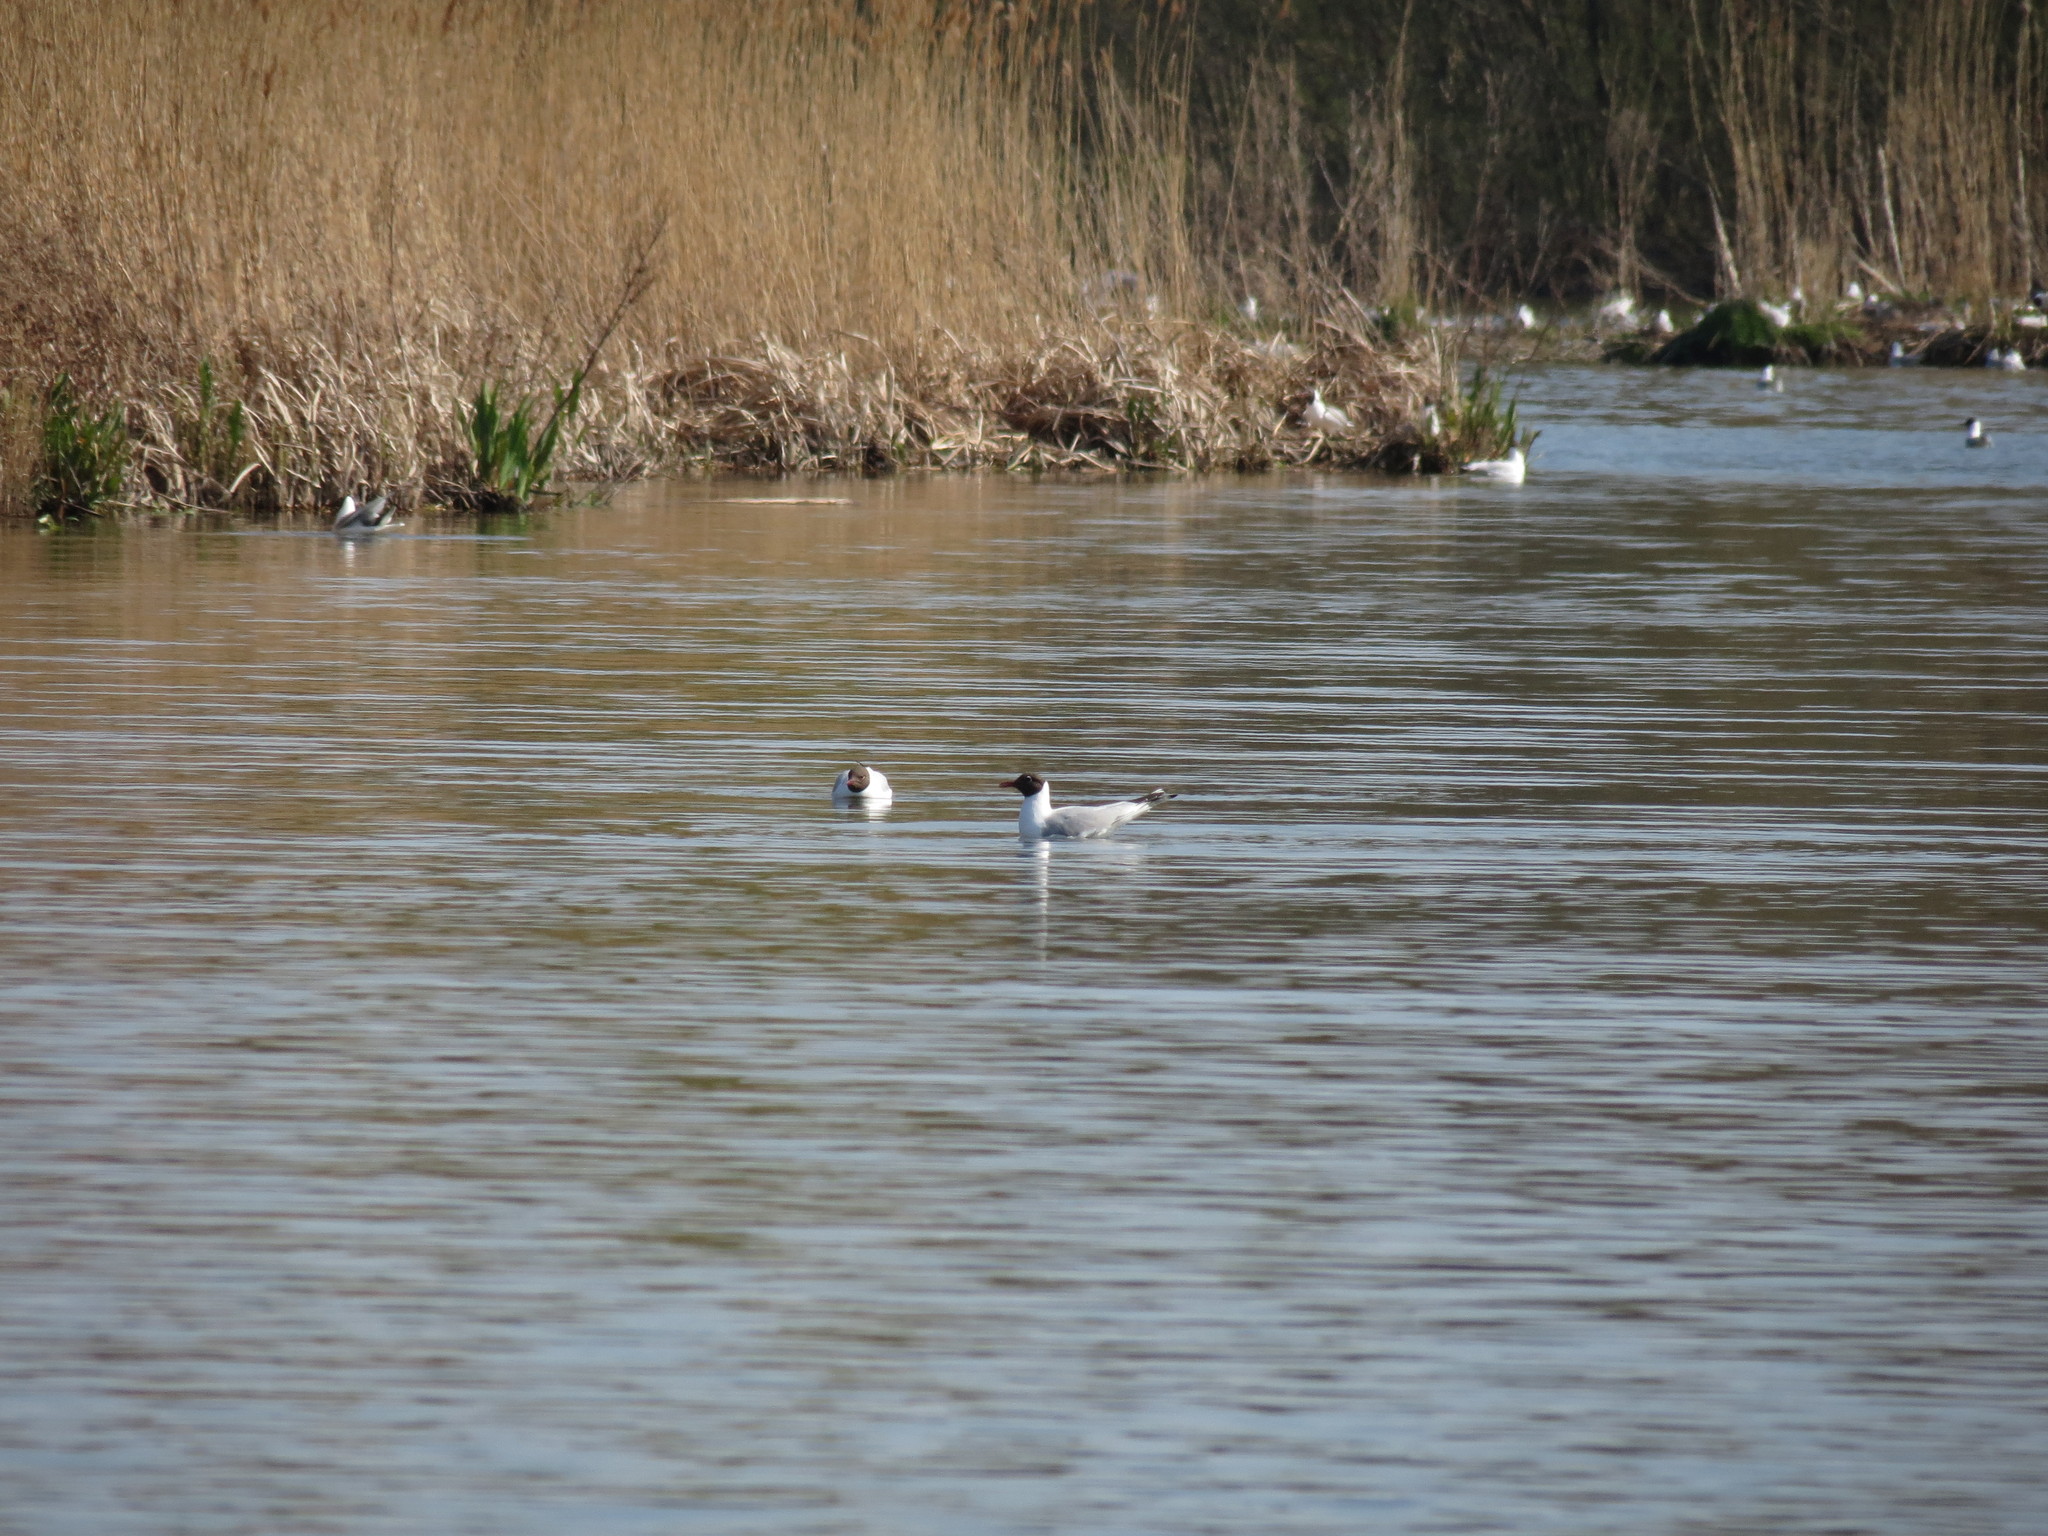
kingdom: Animalia
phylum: Chordata
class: Aves
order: Charadriiformes
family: Laridae
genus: Chroicocephalus
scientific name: Chroicocephalus ridibundus
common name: Black-headed gull
